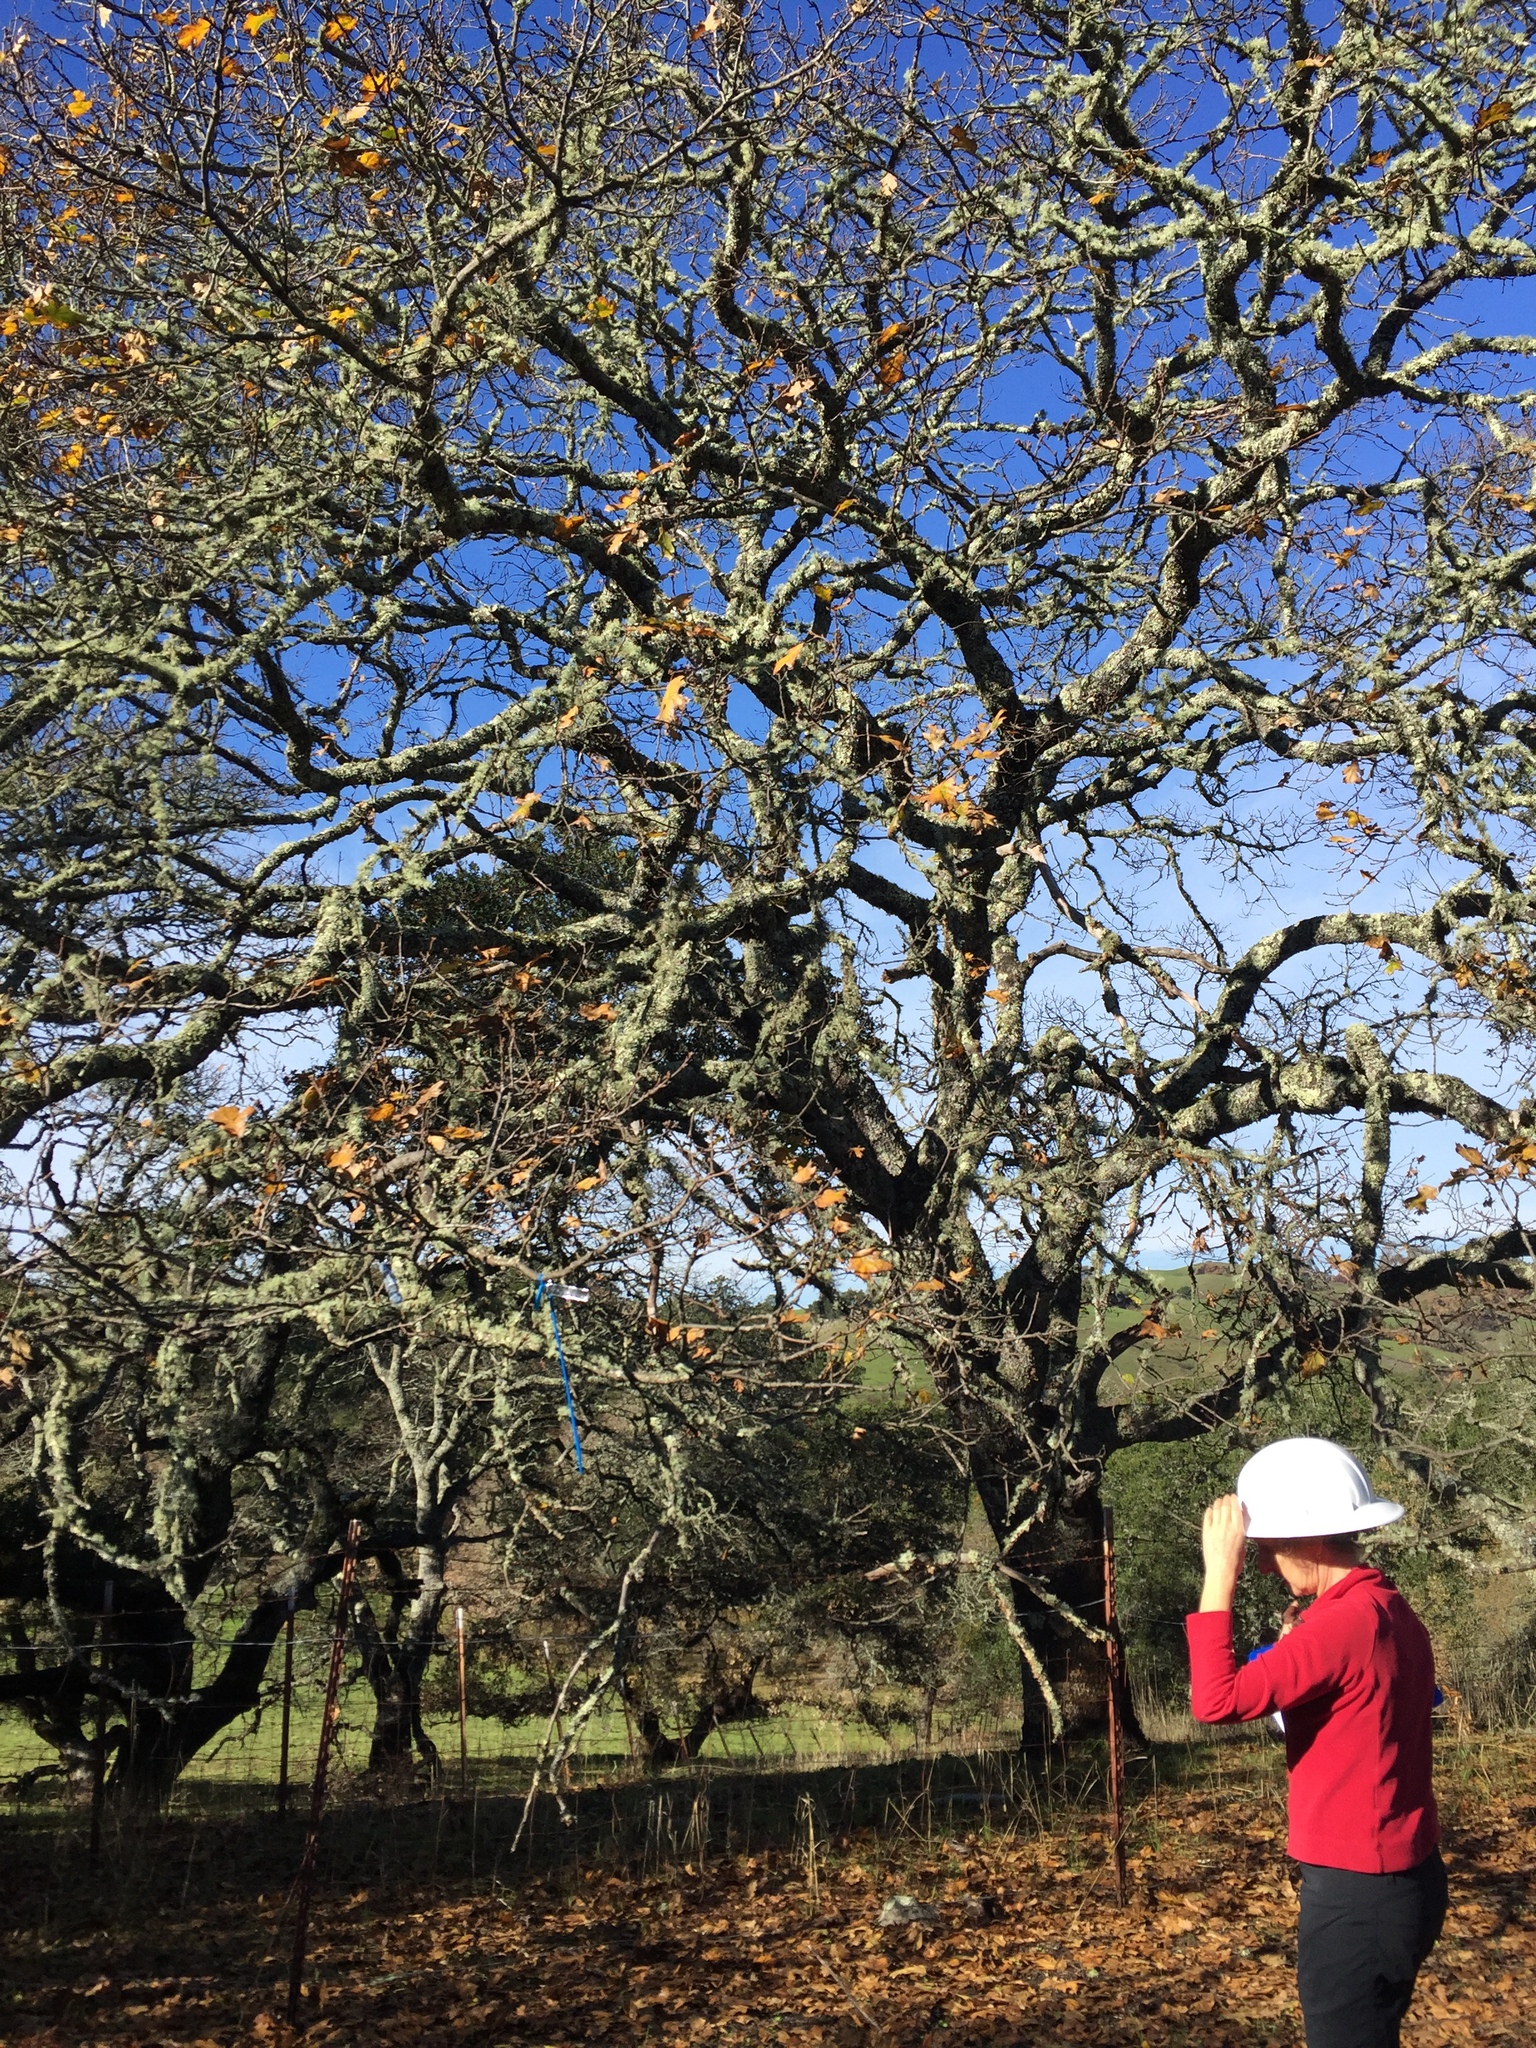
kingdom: Plantae
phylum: Tracheophyta
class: Magnoliopsida
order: Fagales
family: Fagaceae
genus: Quercus
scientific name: Quercus kelloggii
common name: California black oak
